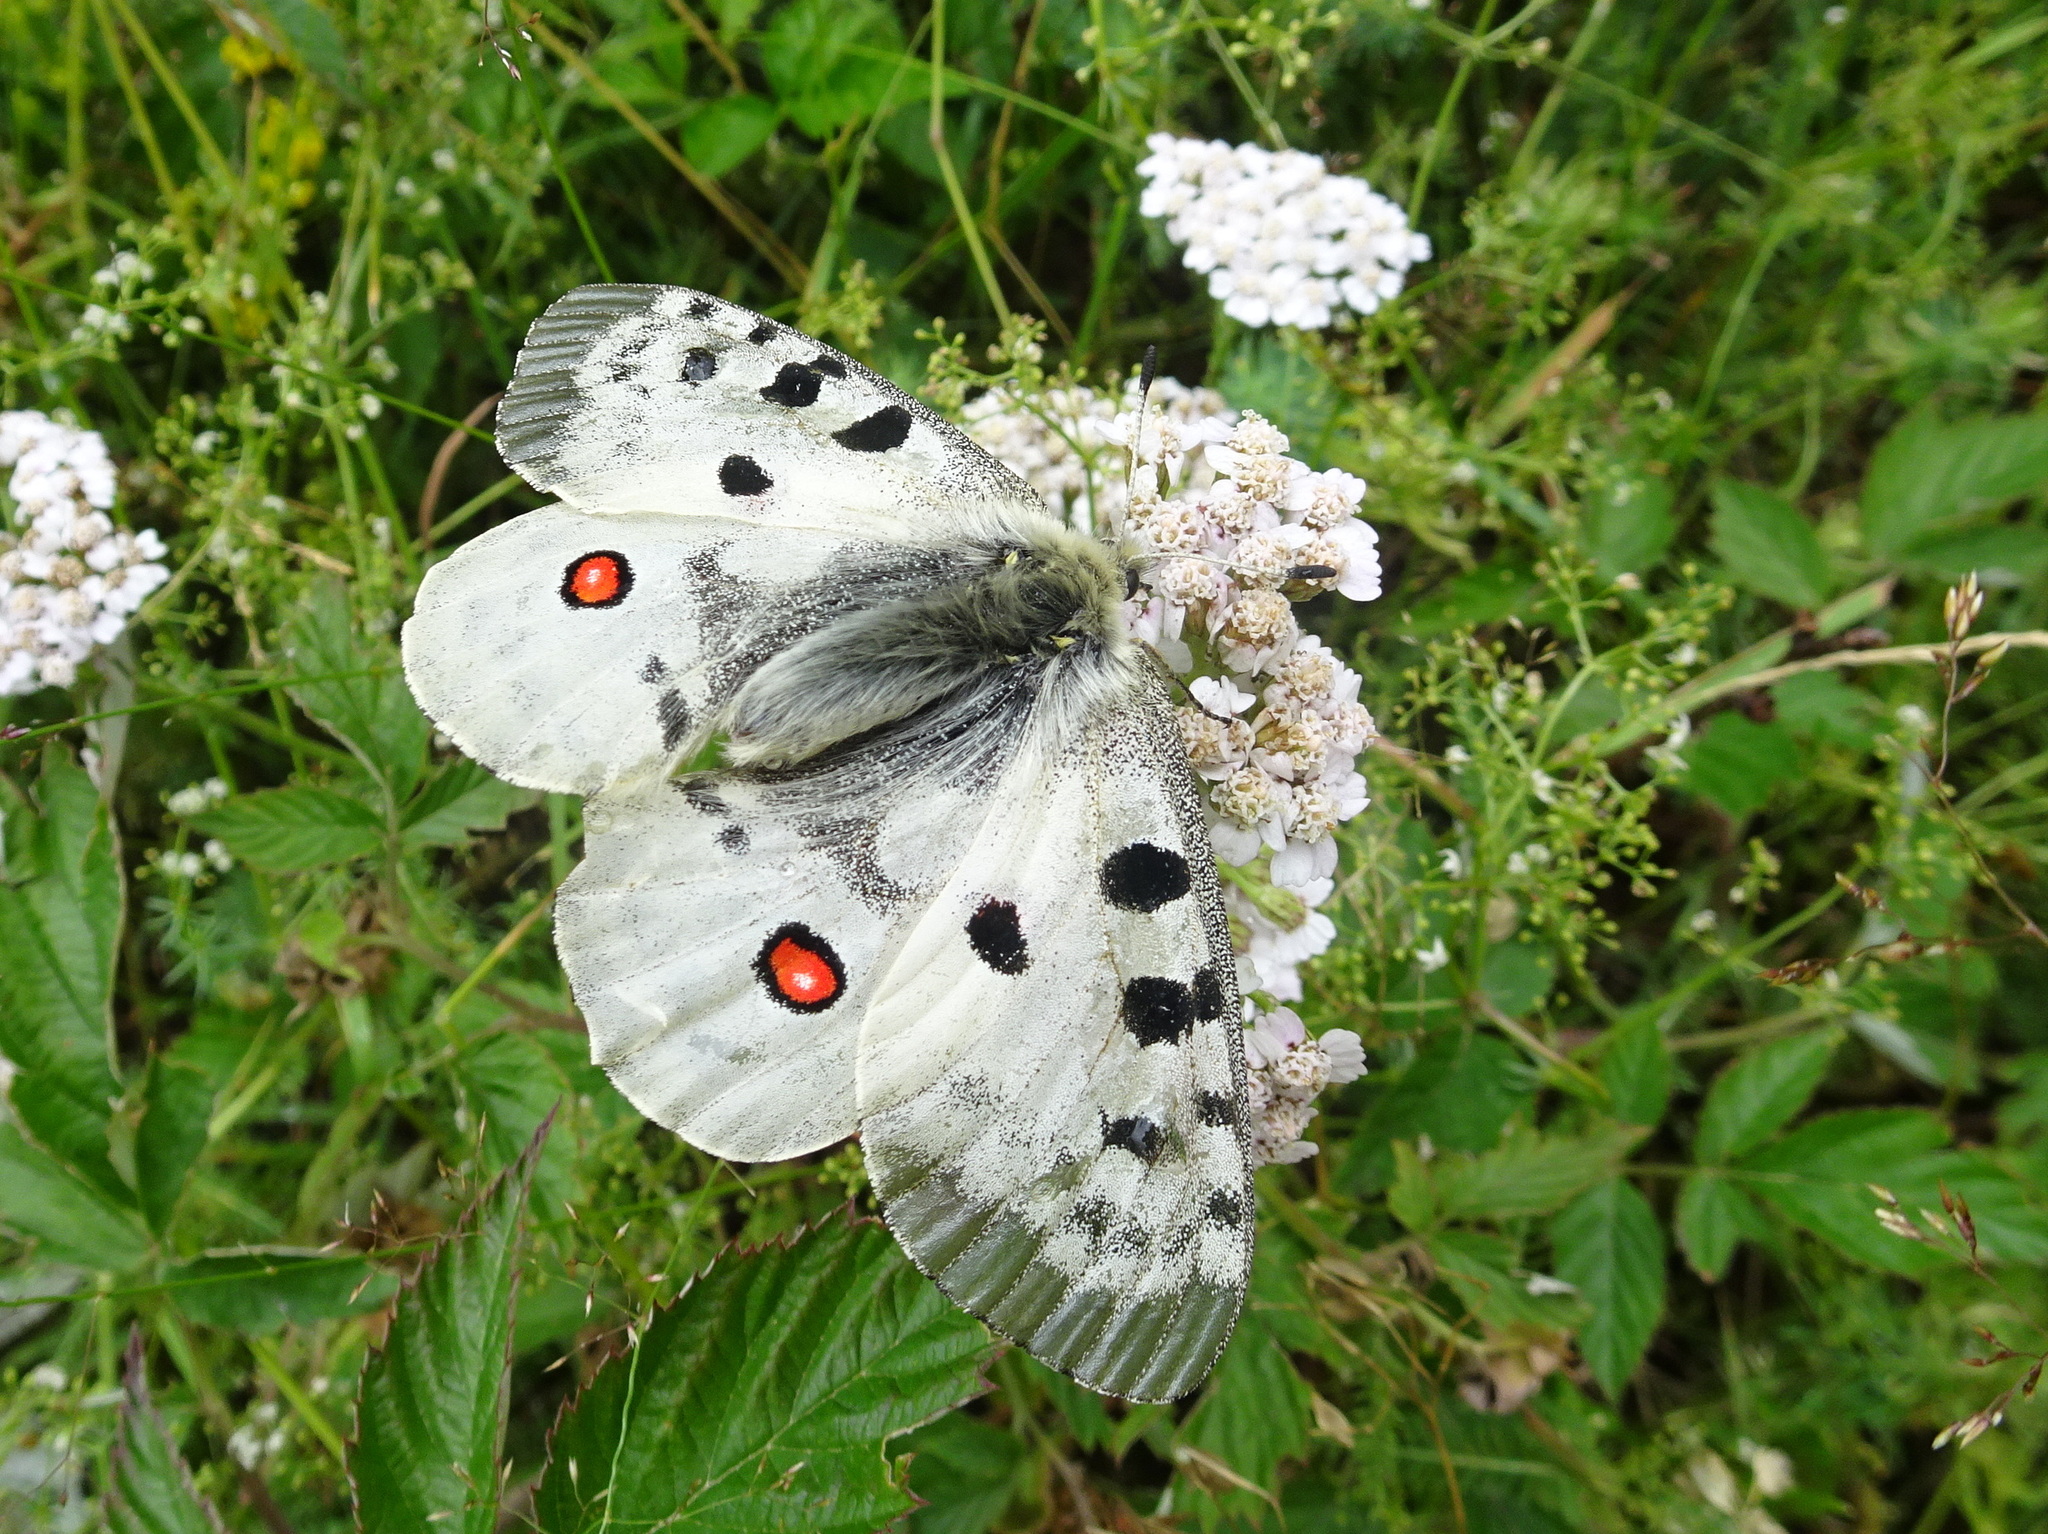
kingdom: Animalia
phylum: Arthropoda
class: Insecta
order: Lepidoptera
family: Papilionidae
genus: Parnassius
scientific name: Parnassius apollo
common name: Apollo
